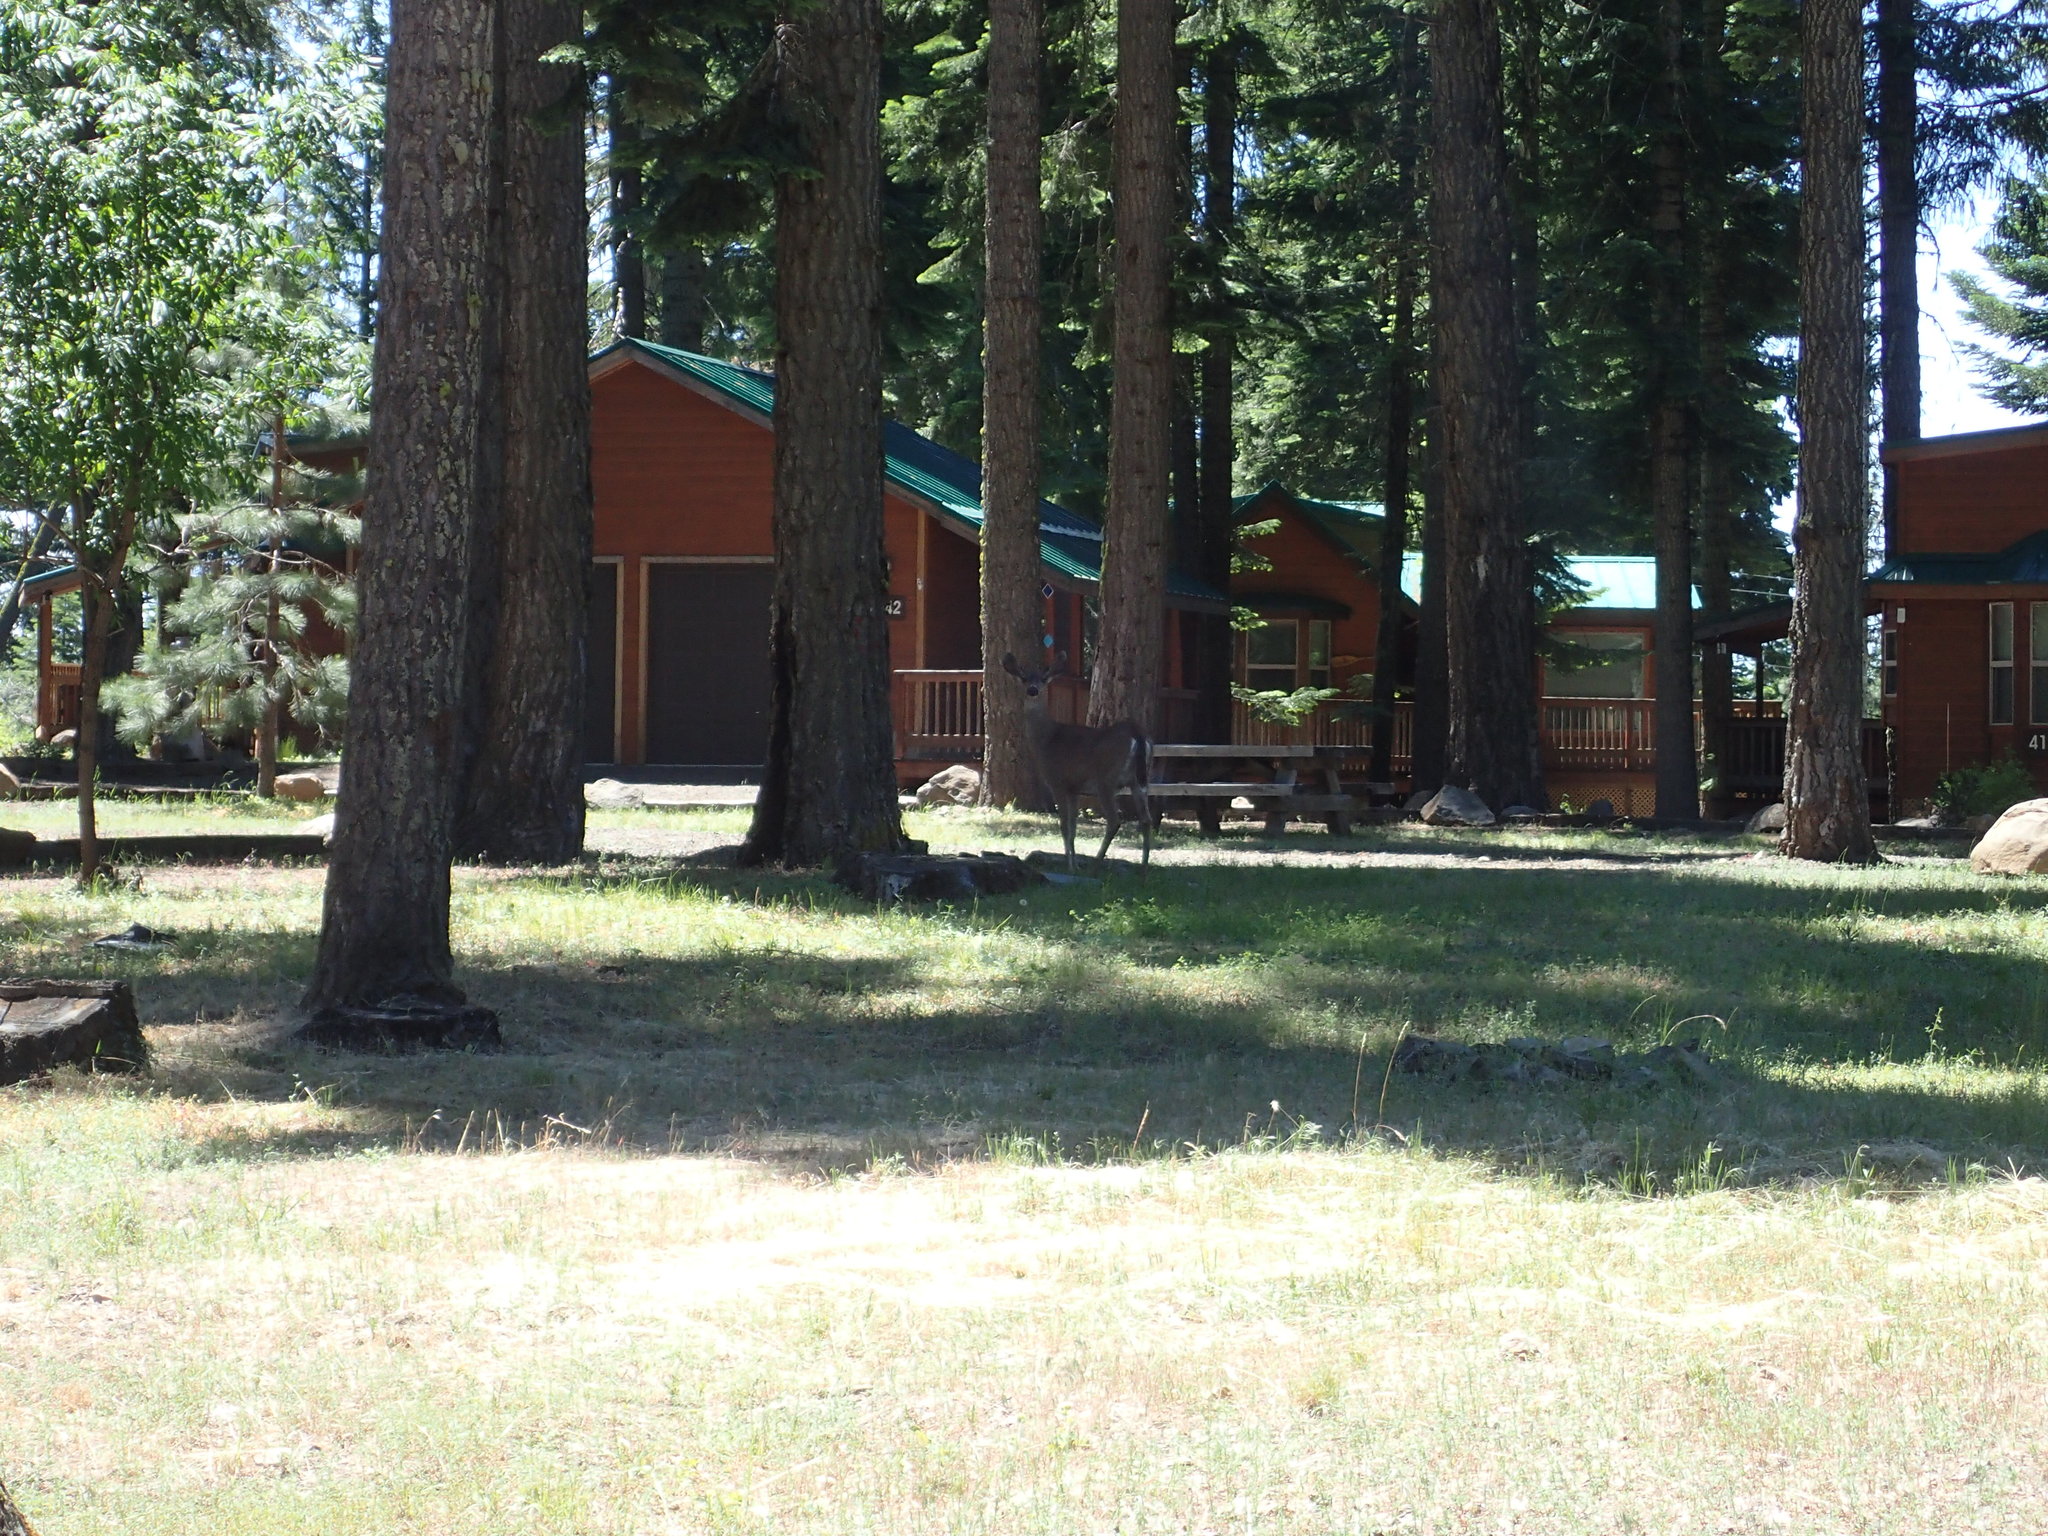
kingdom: Animalia
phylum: Chordata
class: Mammalia
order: Artiodactyla
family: Cervidae
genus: Odocoileus
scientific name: Odocoileus hemionus
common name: Mule deer
